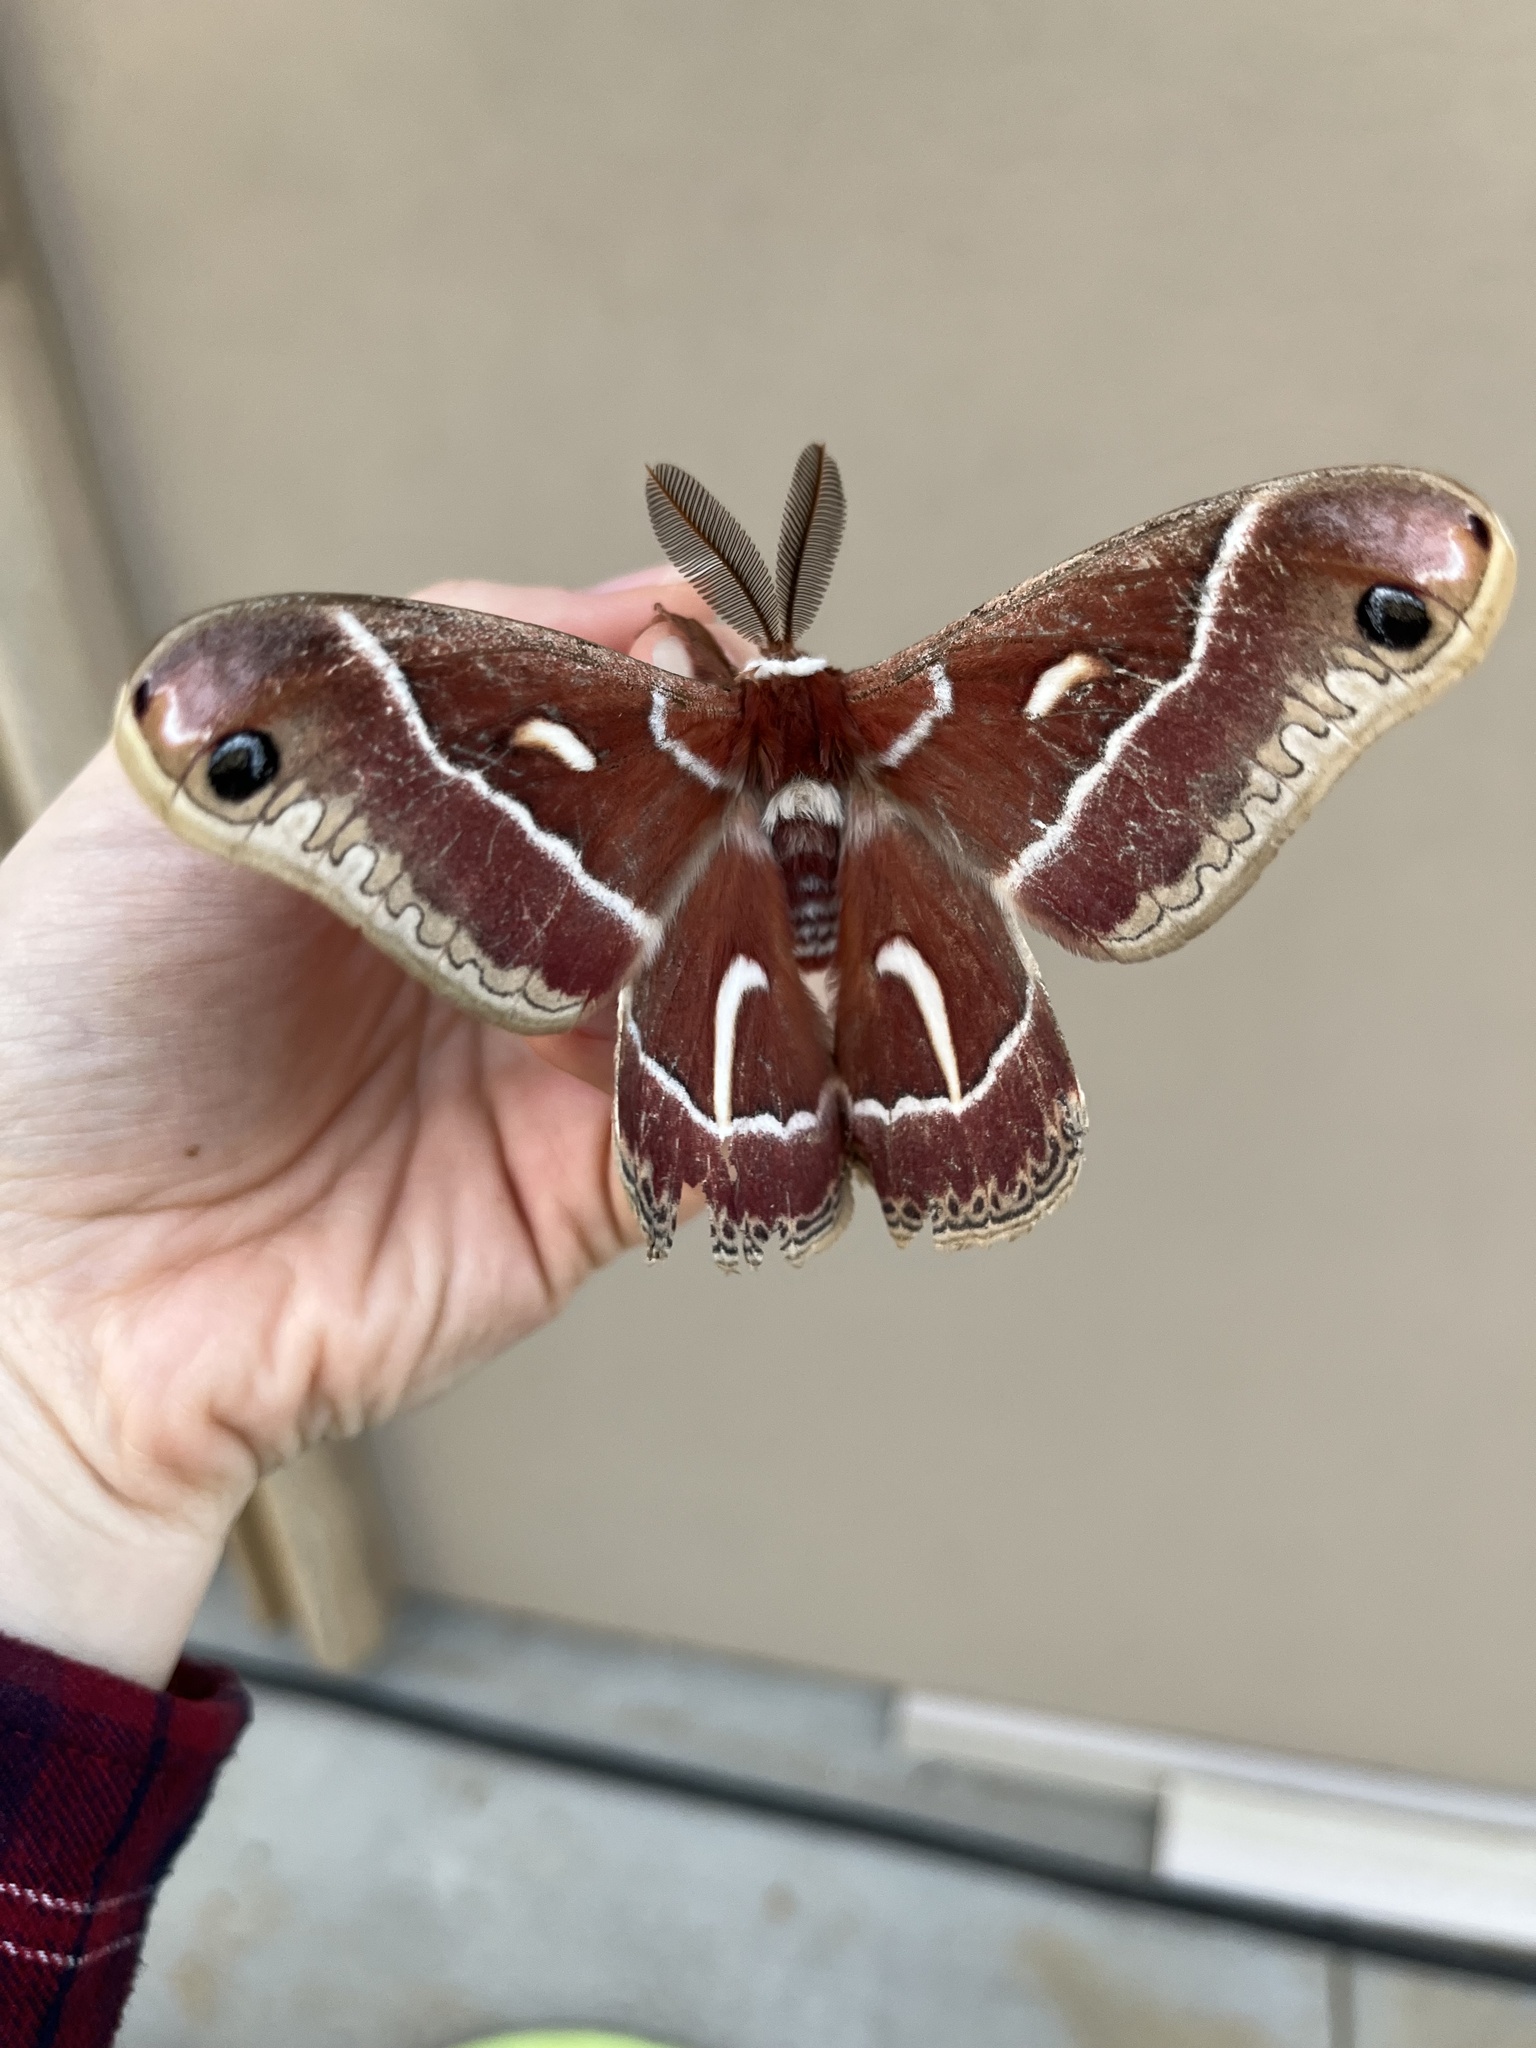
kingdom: Animalia
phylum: Arthropoda
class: Insecta
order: Lepidoptera
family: Saturniidae
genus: Hyalophora
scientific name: Hyalophora euryalus
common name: Ceanothus silkmoth
